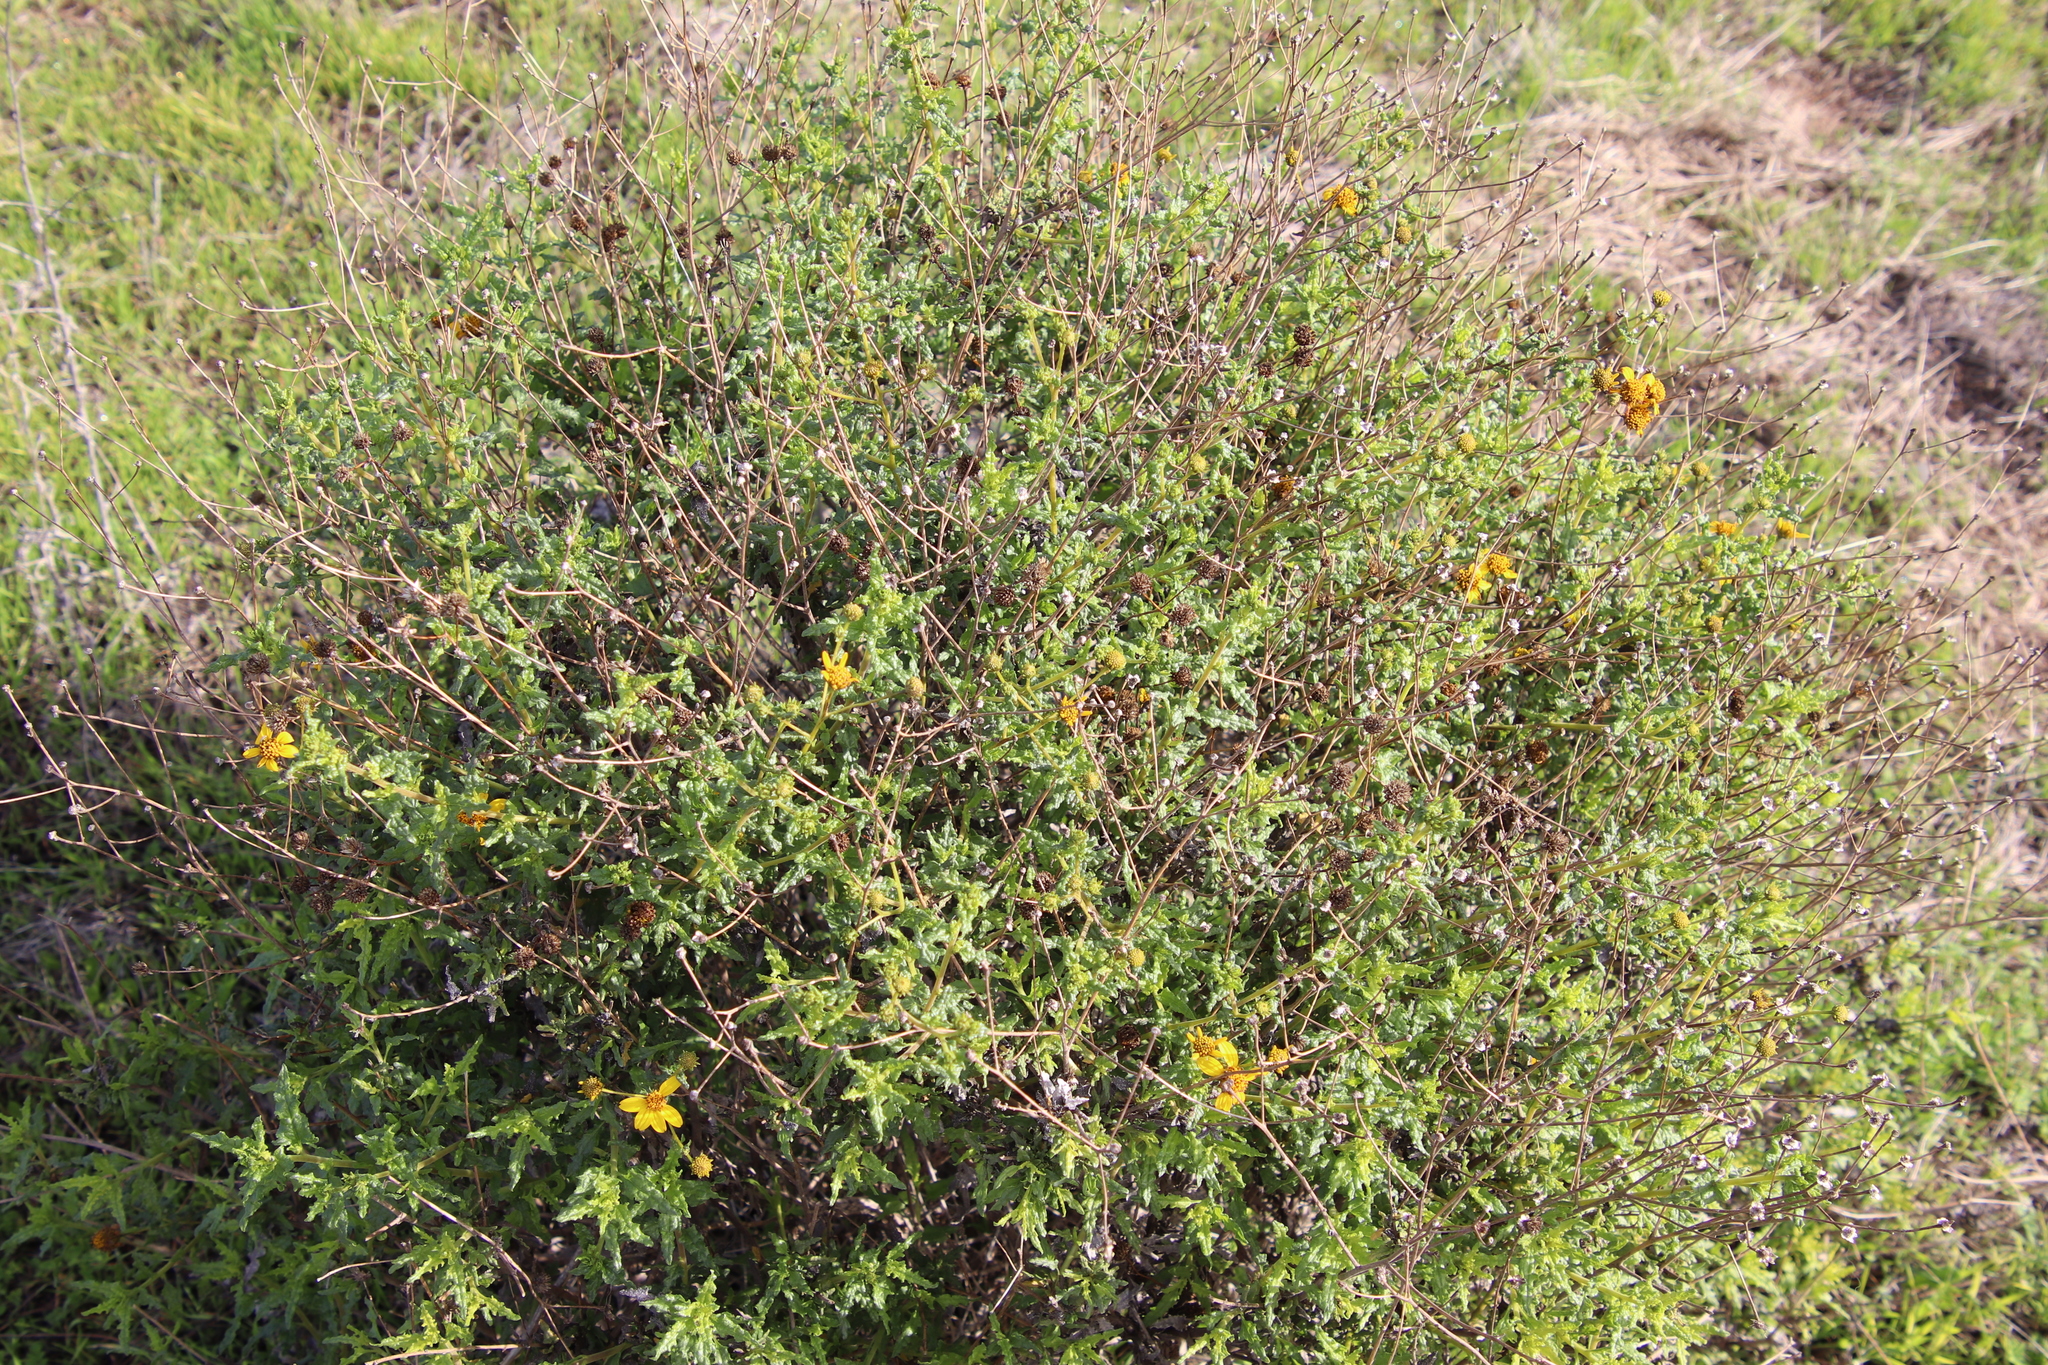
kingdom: Plantae
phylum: Tracheophyta
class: Magnoliopsida
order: Asterales
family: Asteraceae
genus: Bahiopsis
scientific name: Bahiopsis laciniata
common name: San diego county viguiera
